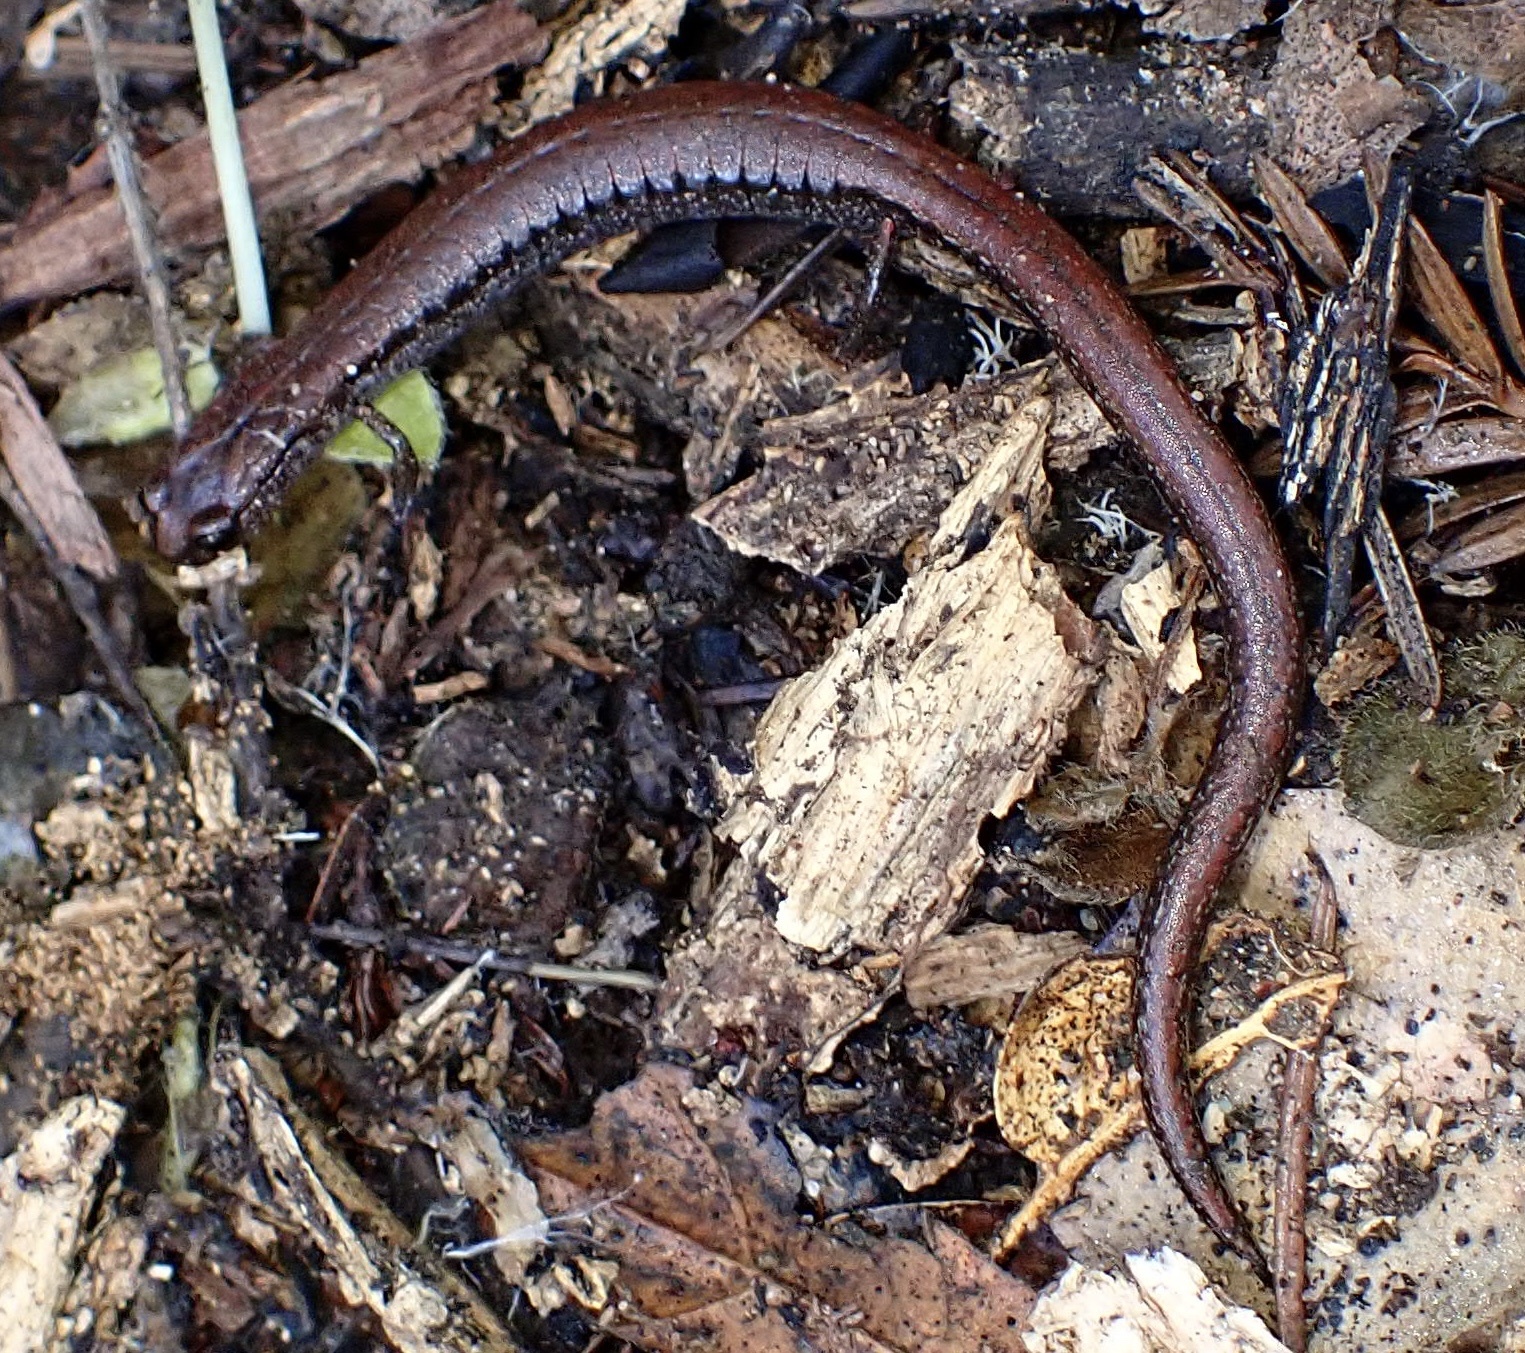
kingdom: Animalia
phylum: Chordata
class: Amphibia
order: Caudata
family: Plethodontidae
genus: Batrachoseps
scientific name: Batrachoseps attenuatus
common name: California slender salamander
